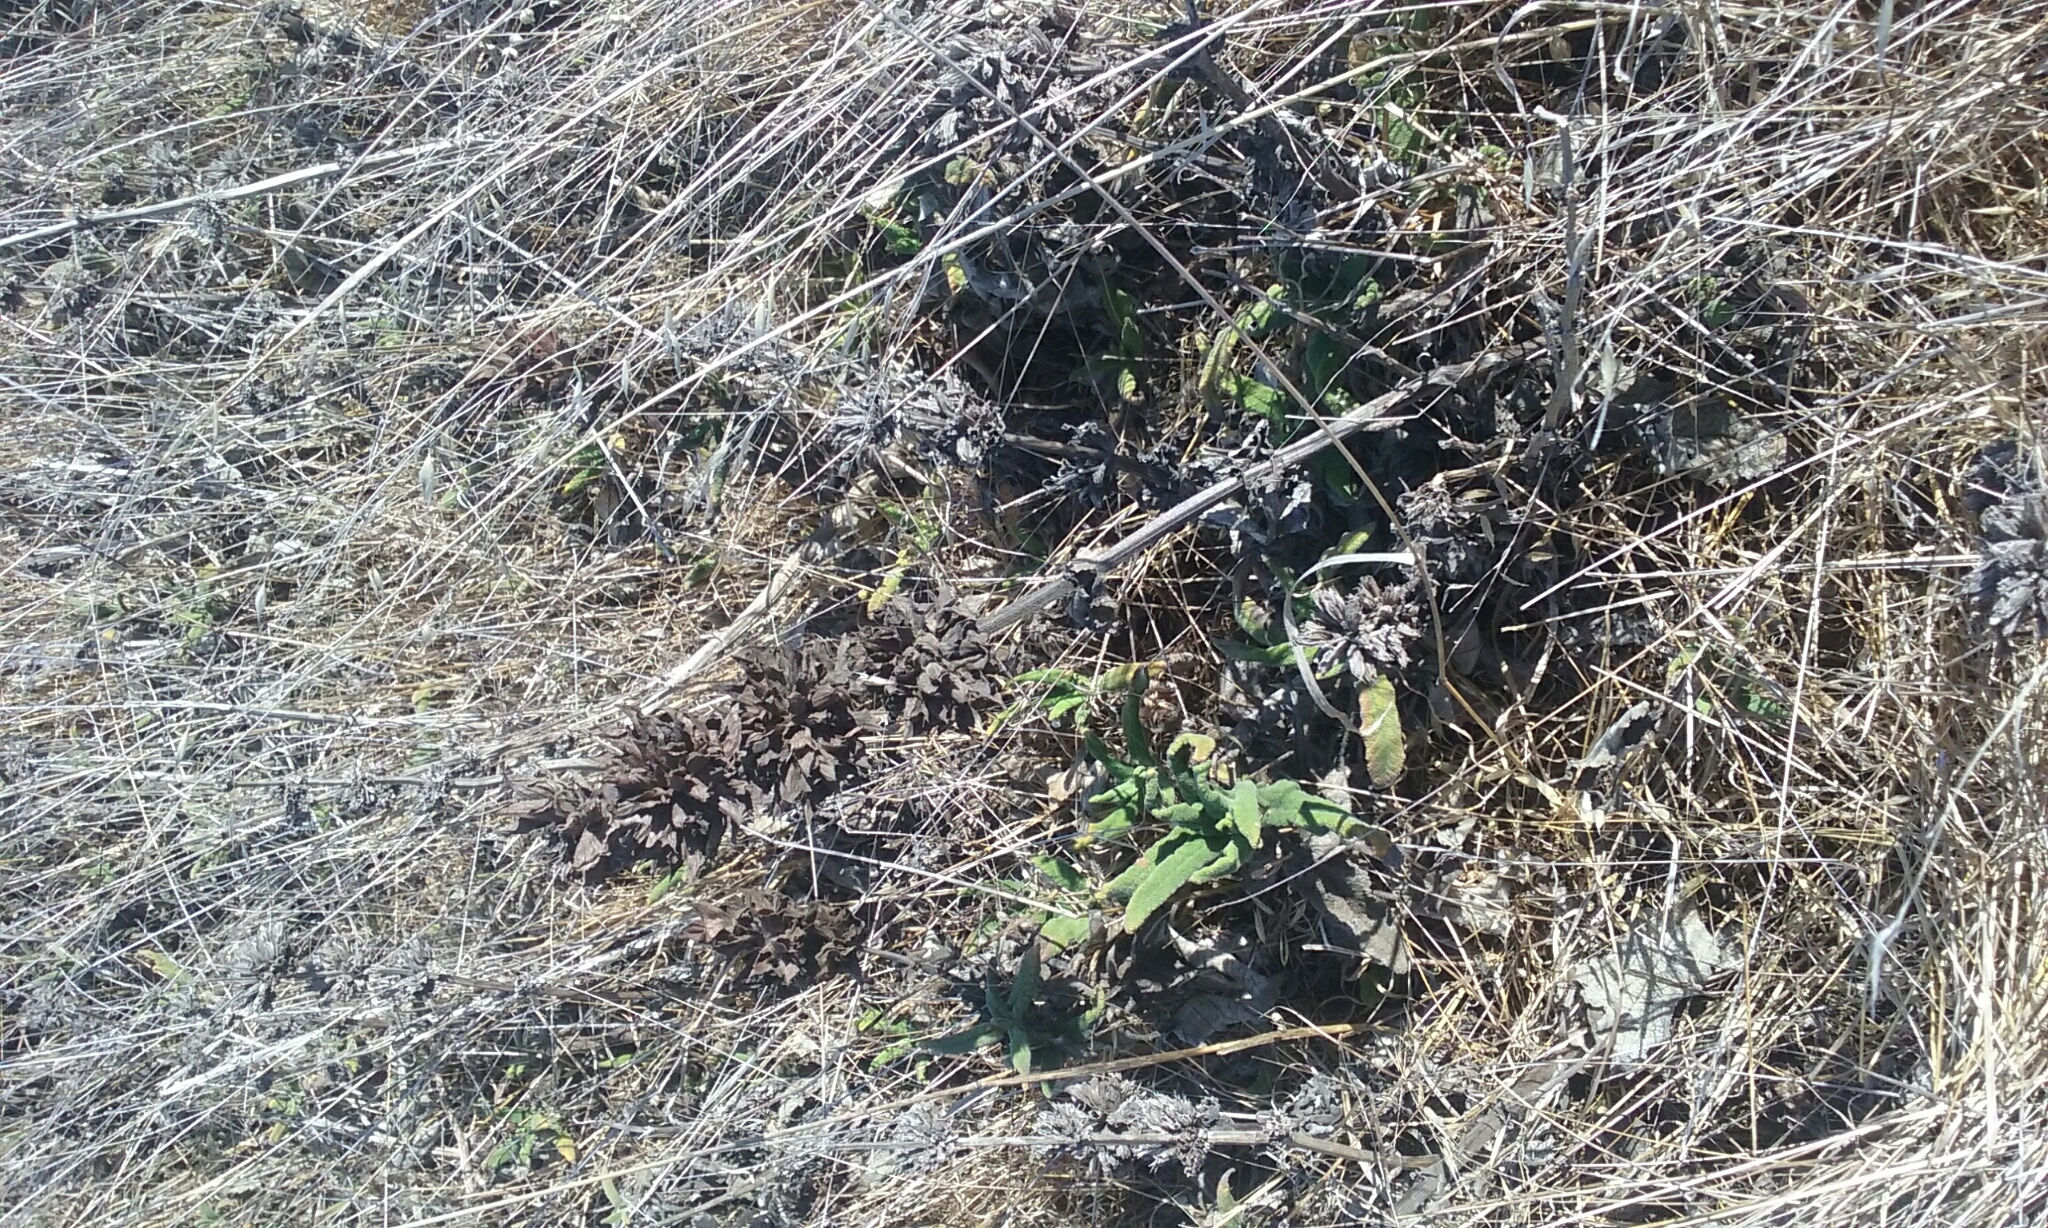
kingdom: Plantae
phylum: Tracheophyta
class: Magnoliopsida
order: Lamiales
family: Lamiaceae
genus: Salvia
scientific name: Salvia spathacea
